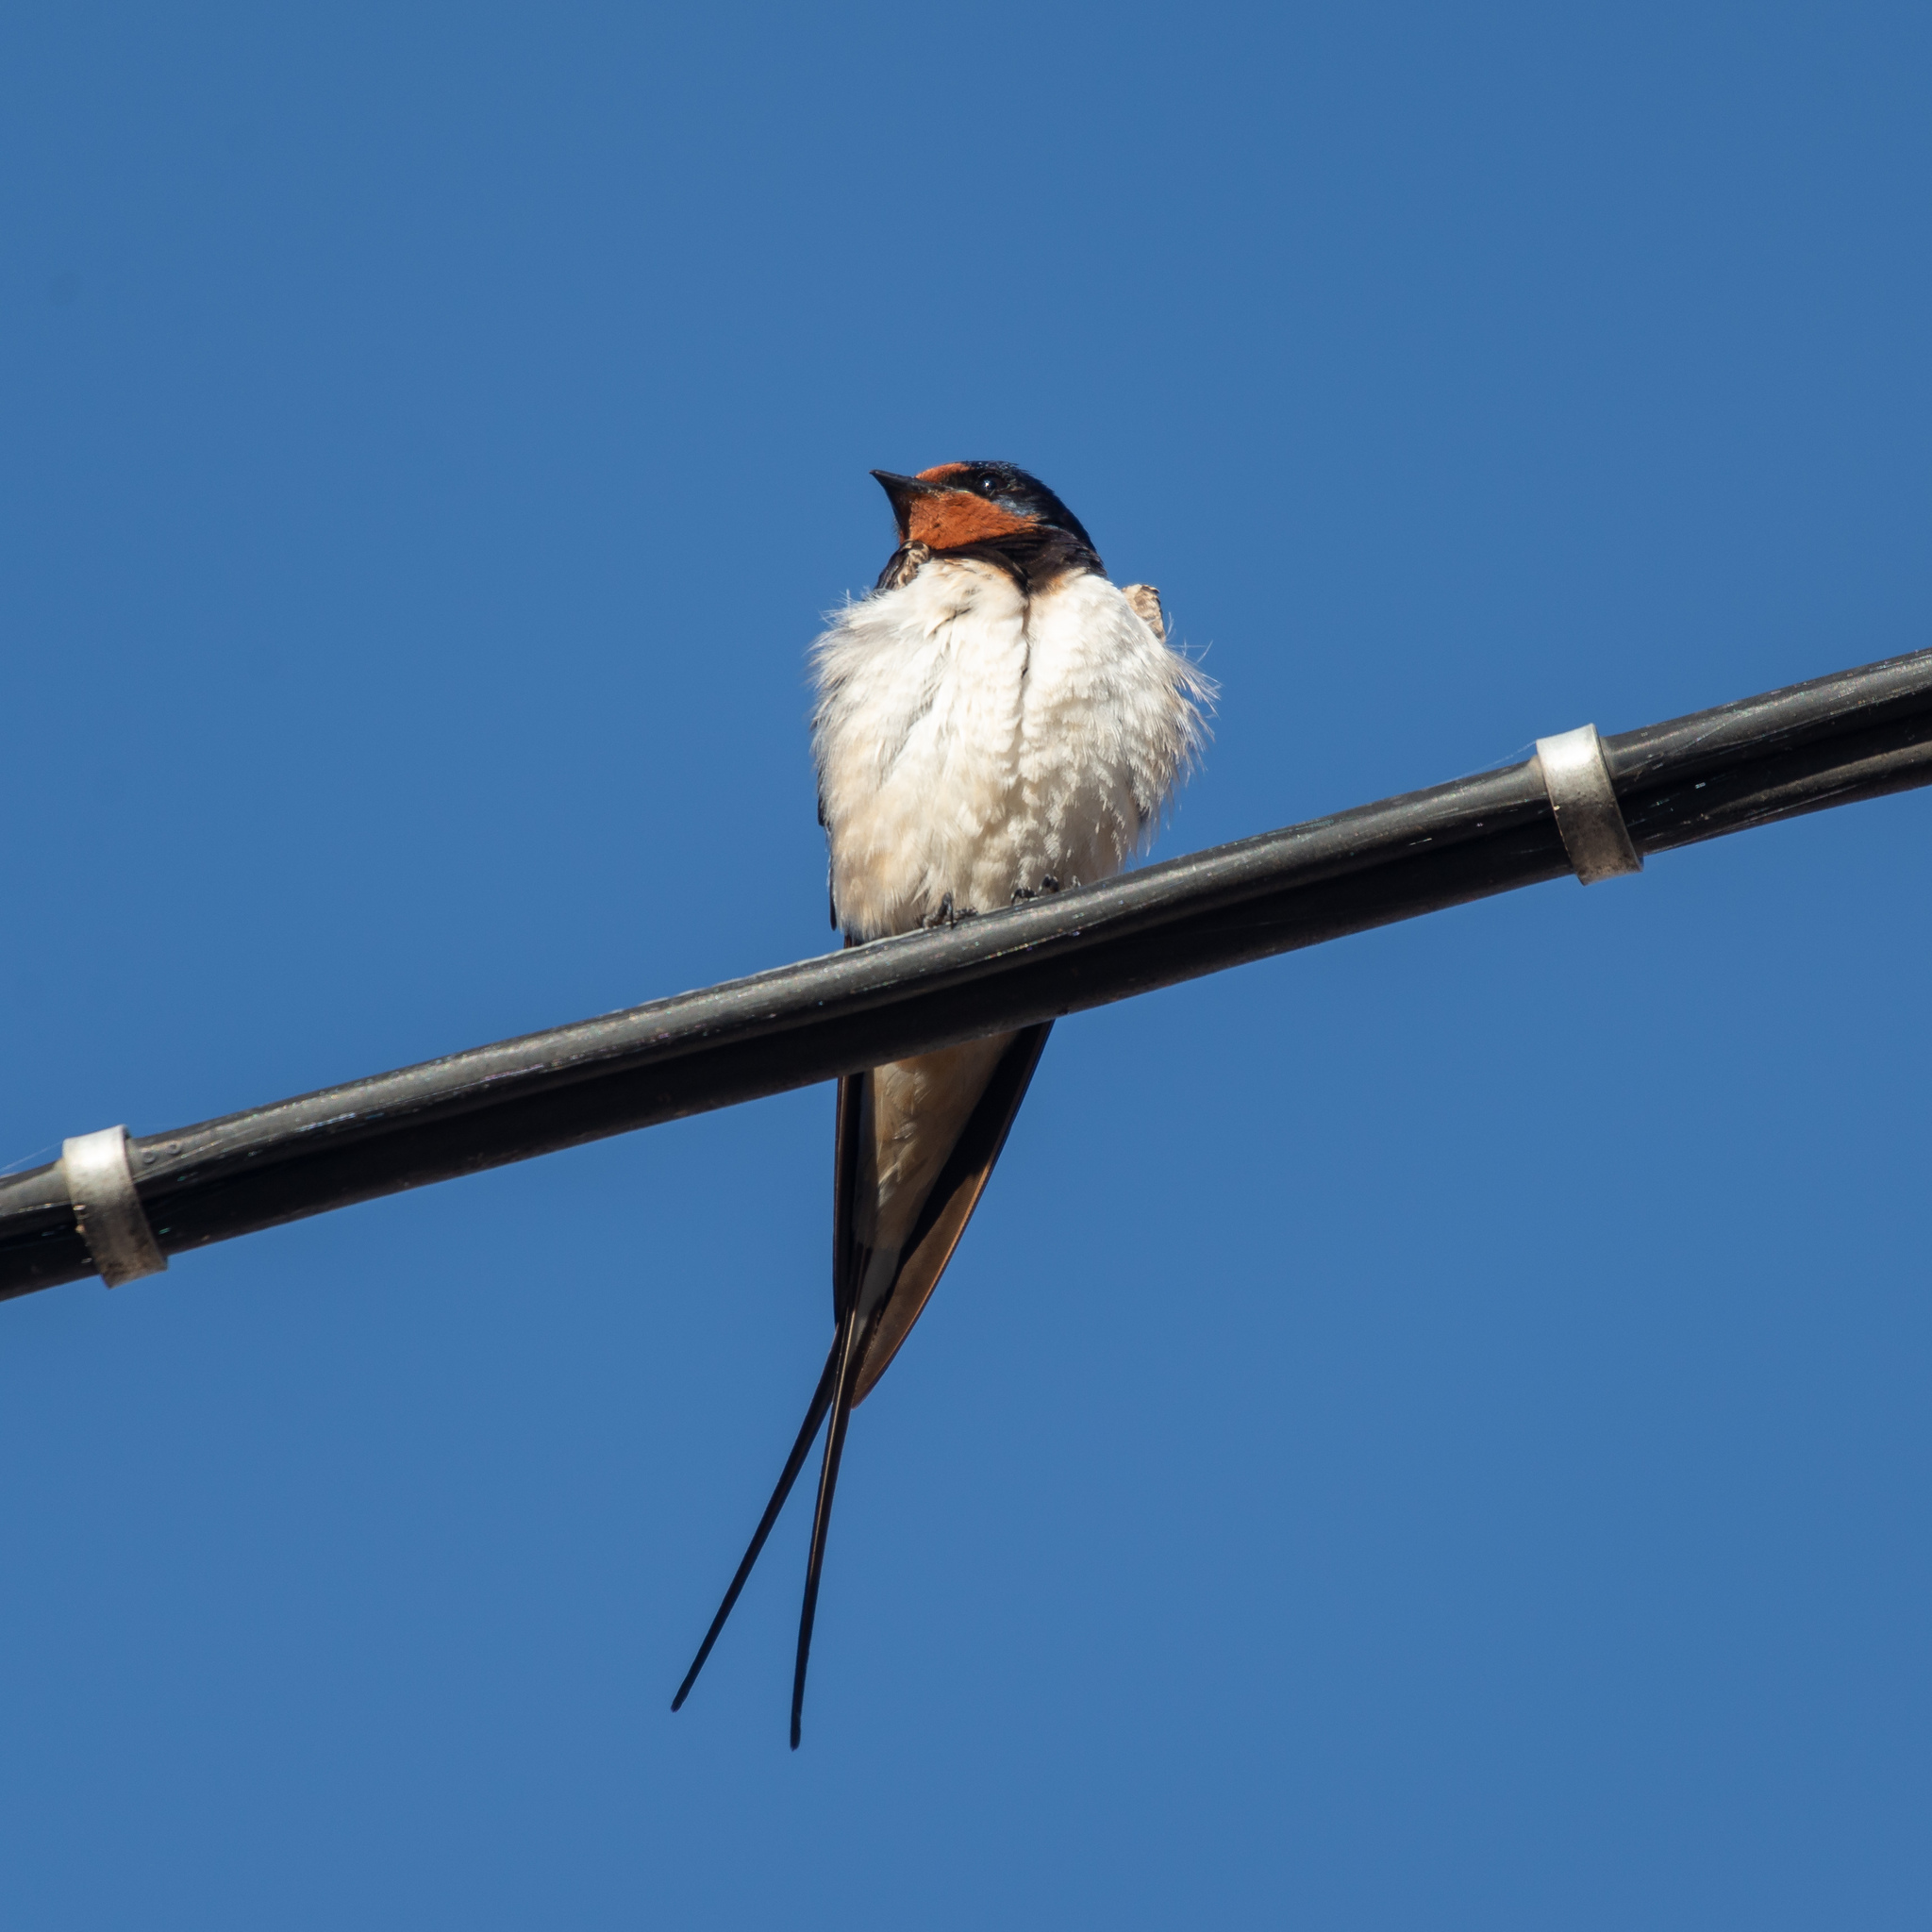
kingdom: Animalia
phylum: Chordata
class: Aves
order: Passeriformes
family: Hirundinidae
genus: Hirundo
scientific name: Hirundo rustica
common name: Barn swallow
